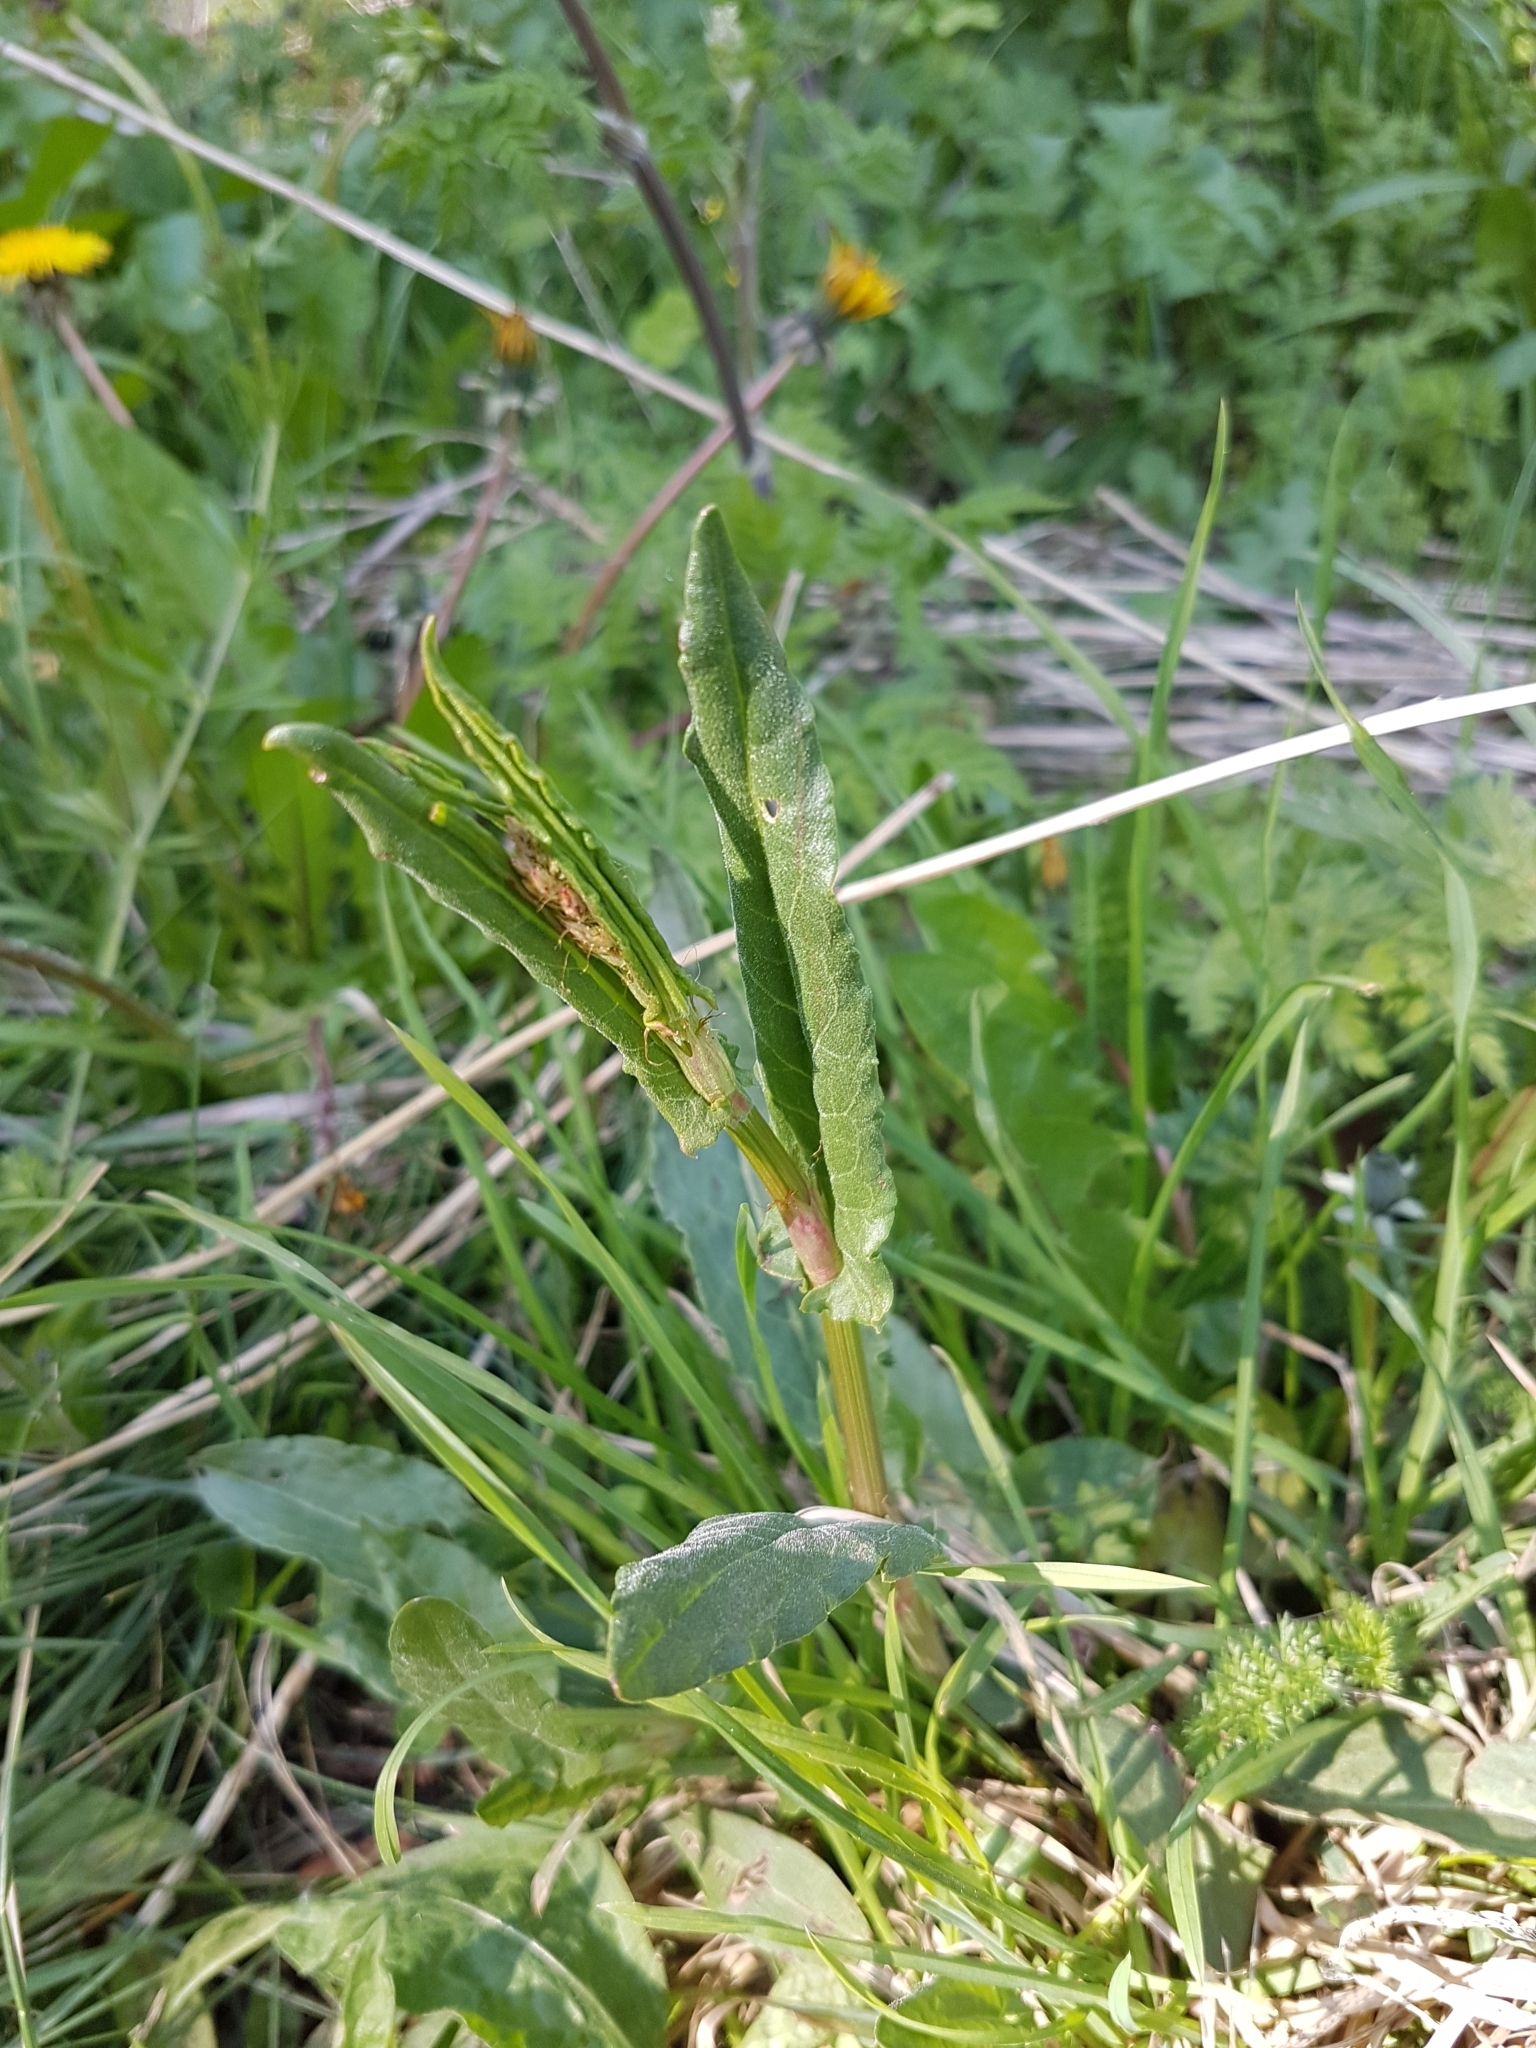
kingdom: Plantae
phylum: Tracheophyta
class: Magnoliopsida
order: Caryophyllales
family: Polygonaceae
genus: Rumex
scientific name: Rumex acetosa
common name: Garden sorrel
